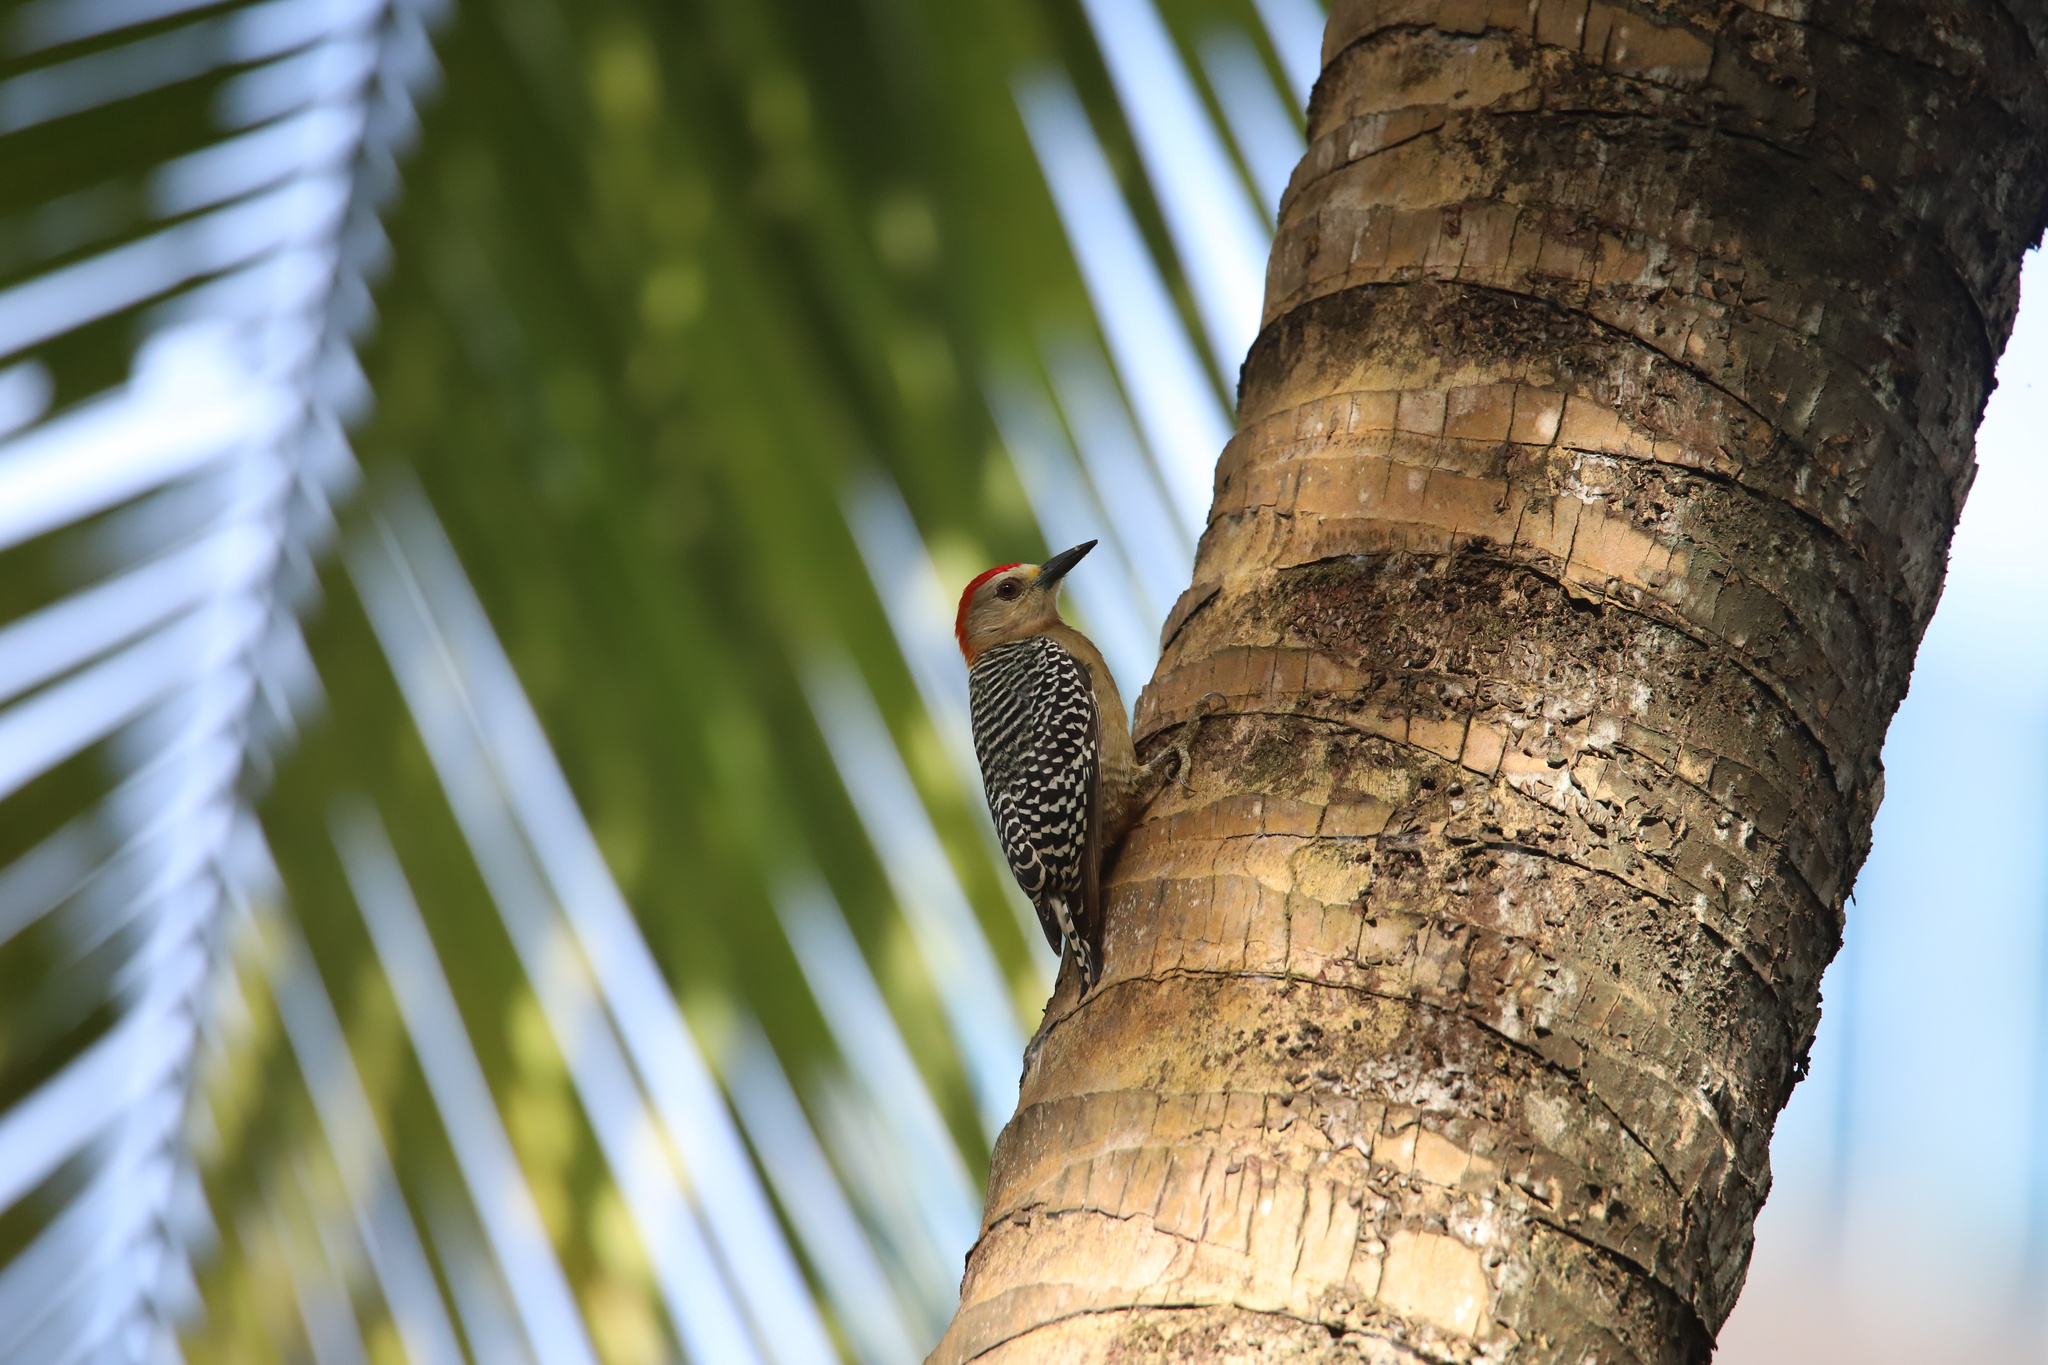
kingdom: Animalia
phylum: Chordata
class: Aves
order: Piciformes
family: Picidae
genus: Melanerpes
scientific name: Melanerpes rubricapillus
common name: Red-crowned woodpecker
